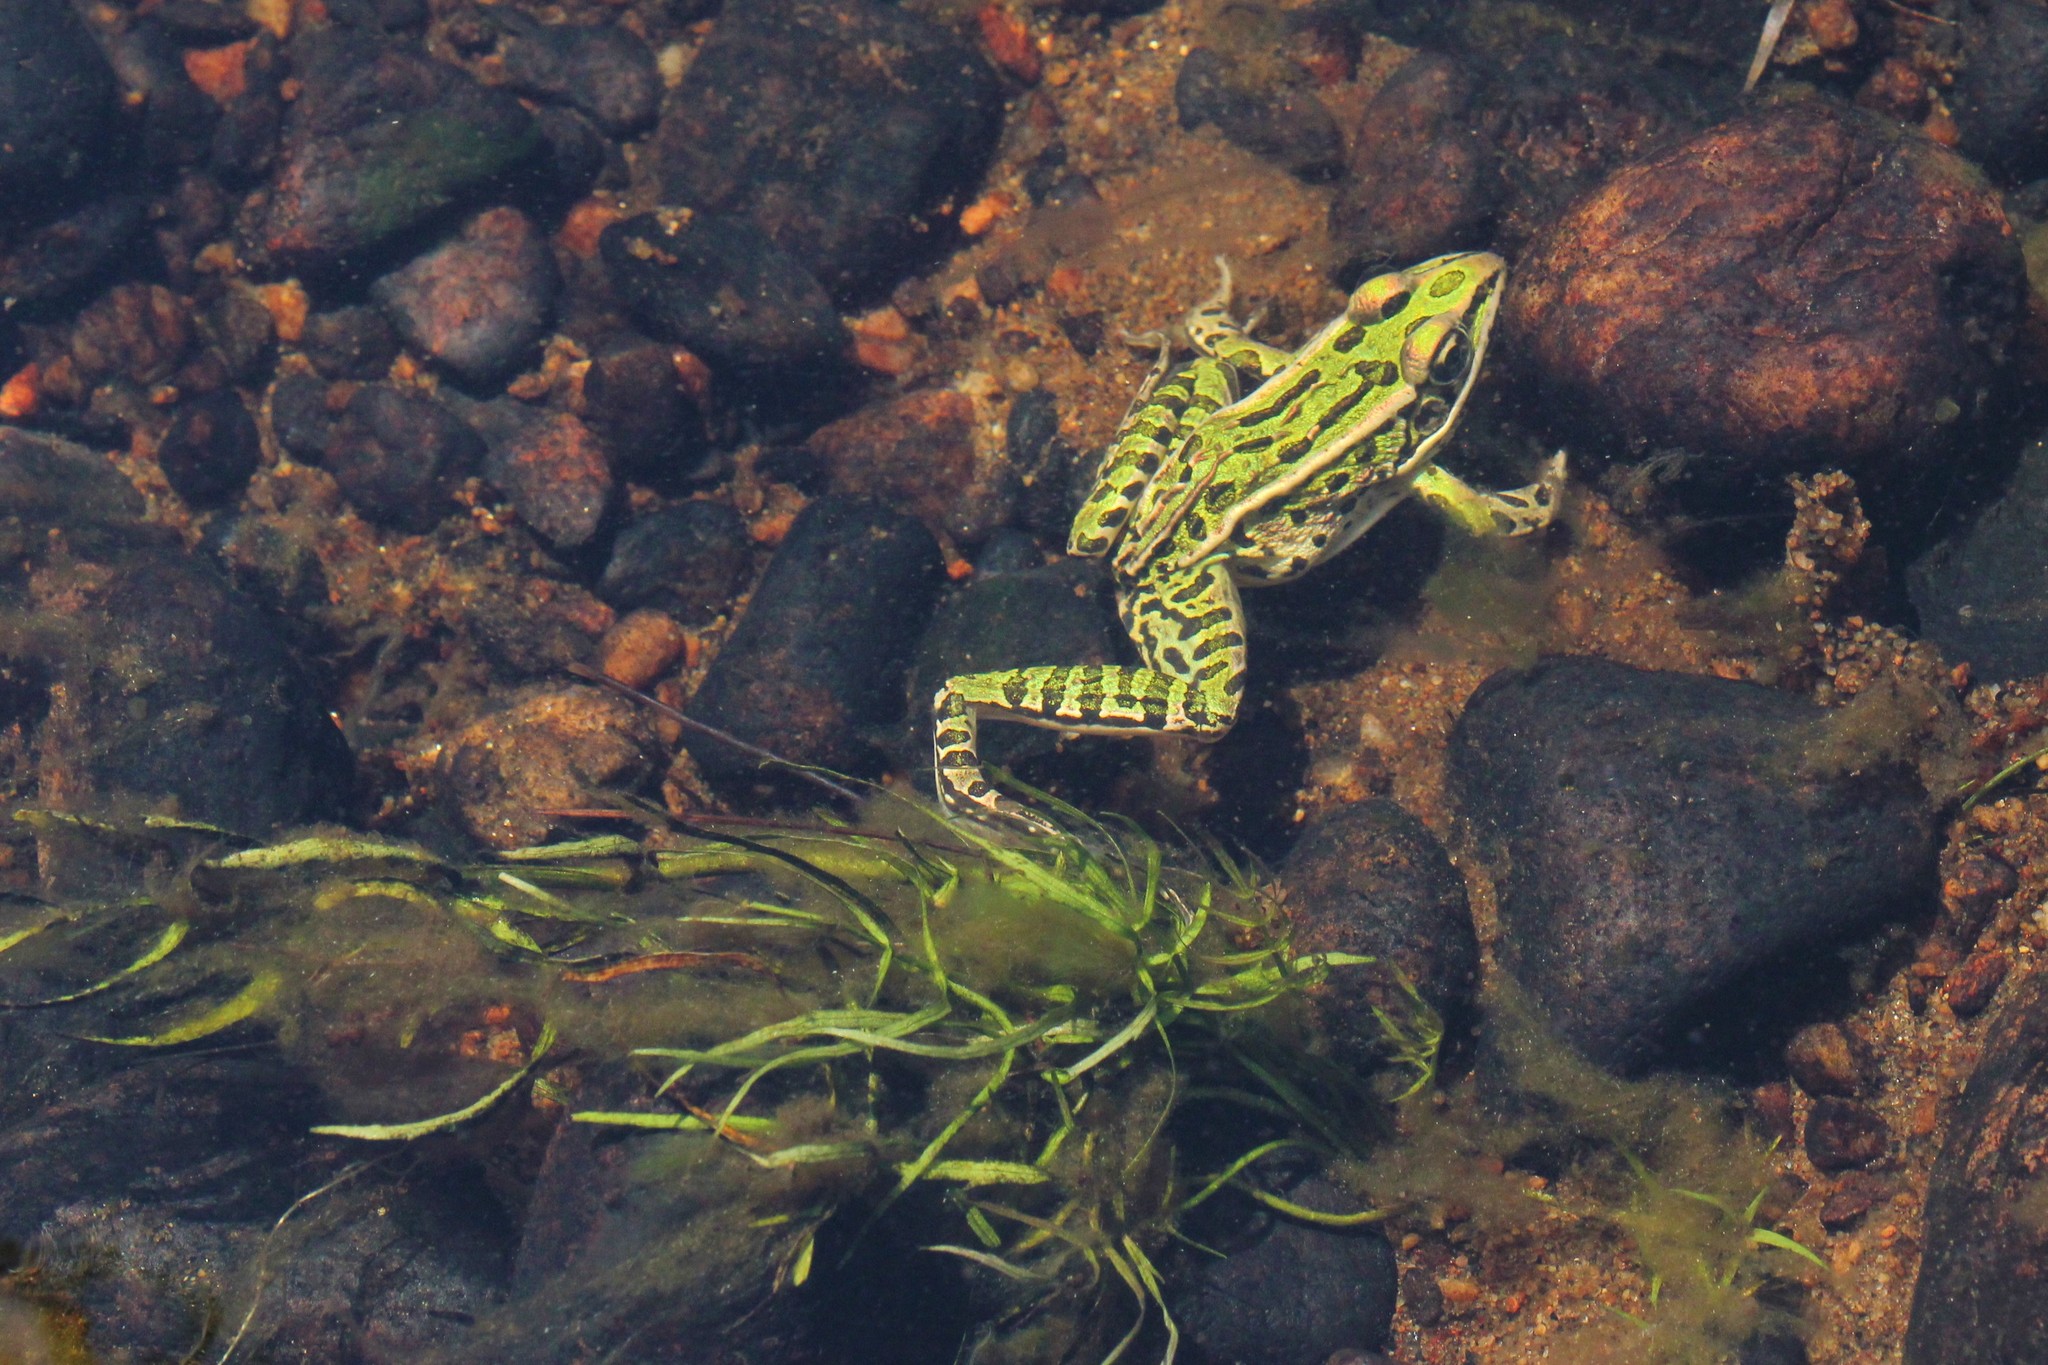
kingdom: Animalia
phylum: Chordata
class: Amphibia
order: Anura
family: Ranidae
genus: Lithobates
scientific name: Lithobates pipiens
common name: Northern leopard frog
